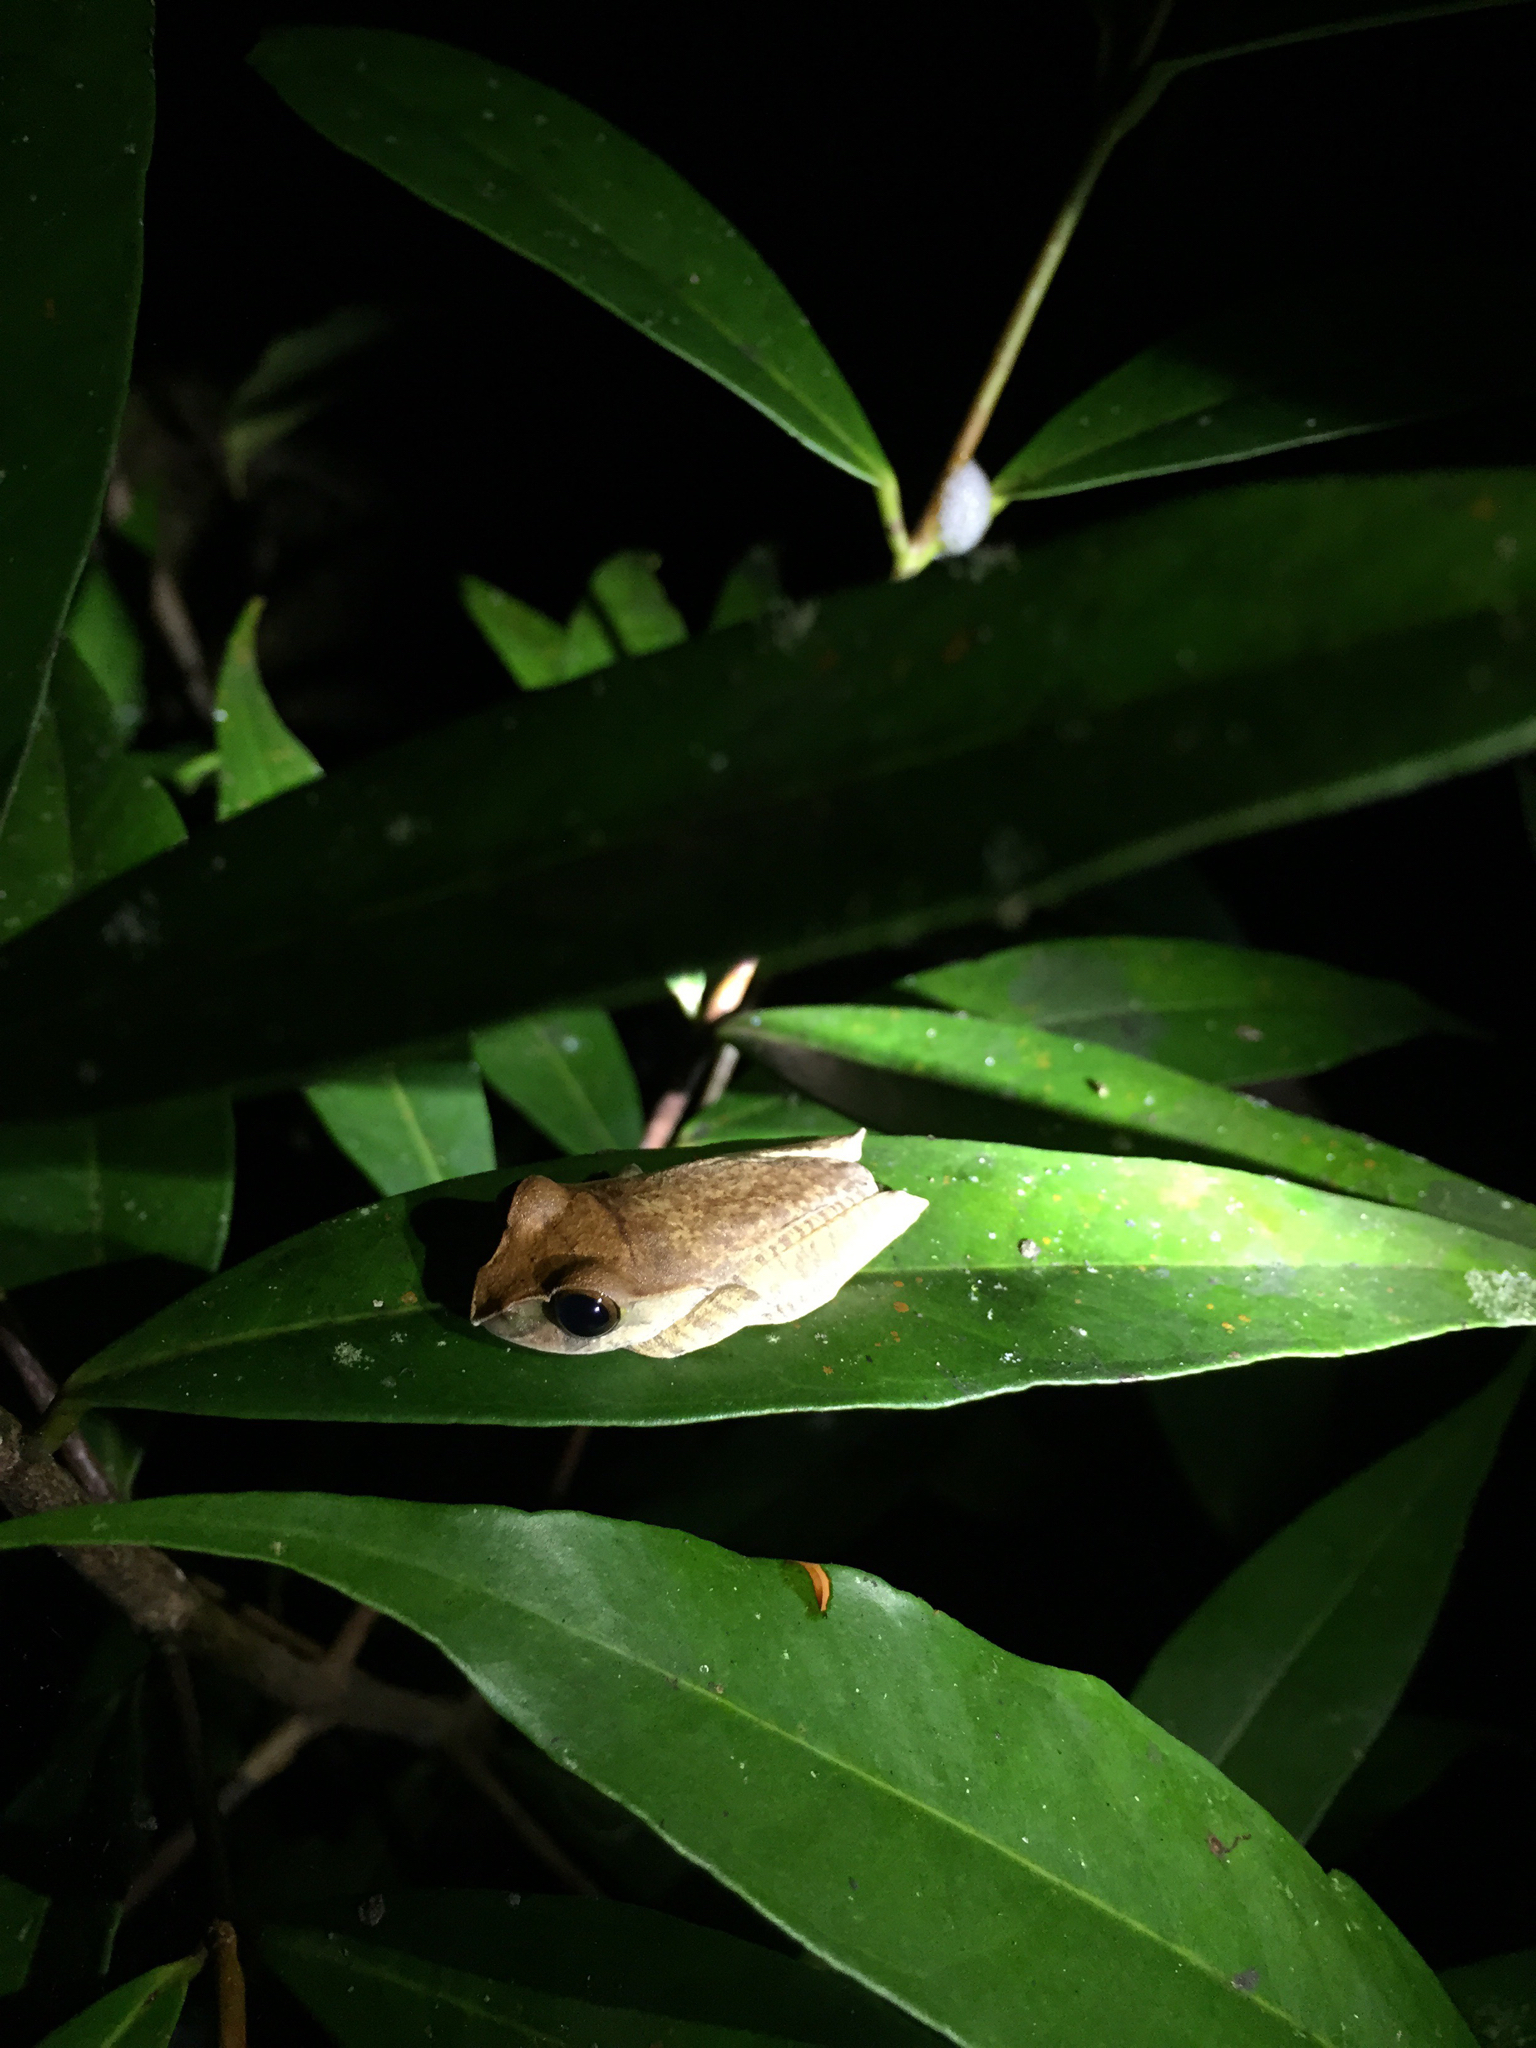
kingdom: Animalia
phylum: Chordata
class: Amphibia
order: Anura
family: Mantellidae
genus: Boophis
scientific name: Boophis madagascariensis
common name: Madagascar bright-eyed frog
